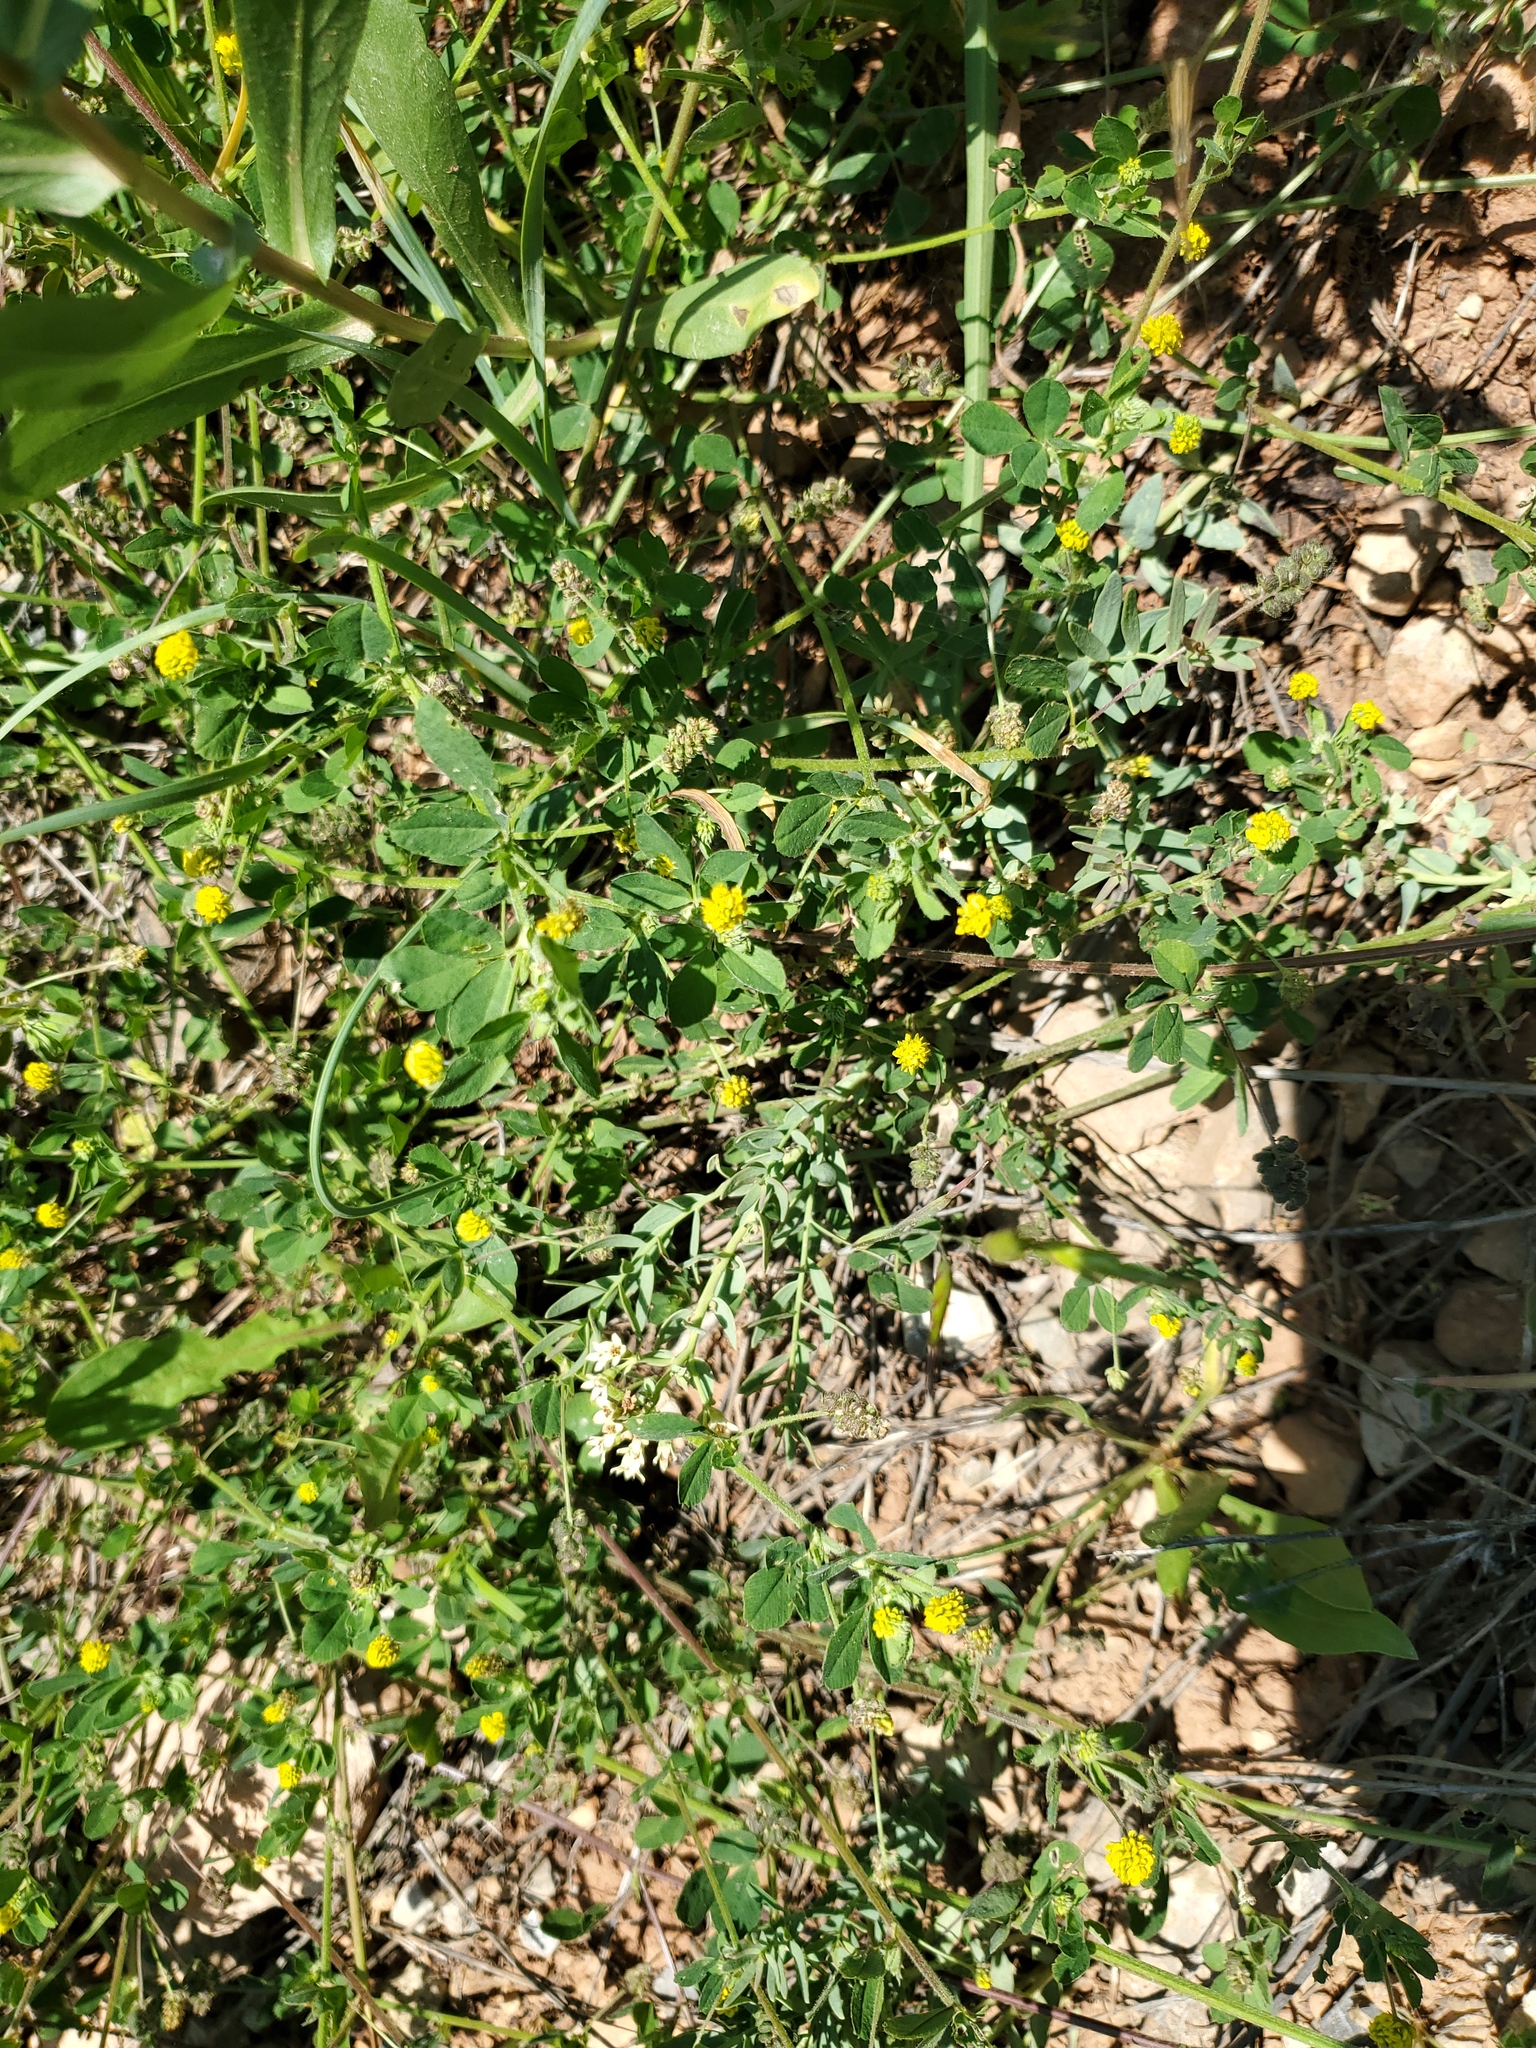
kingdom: Plantae
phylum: Tracheophyta
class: Magnoliopsida
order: Fabales
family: Fabaceae
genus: Medicago
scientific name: Medicago lupulina
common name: Black medick
